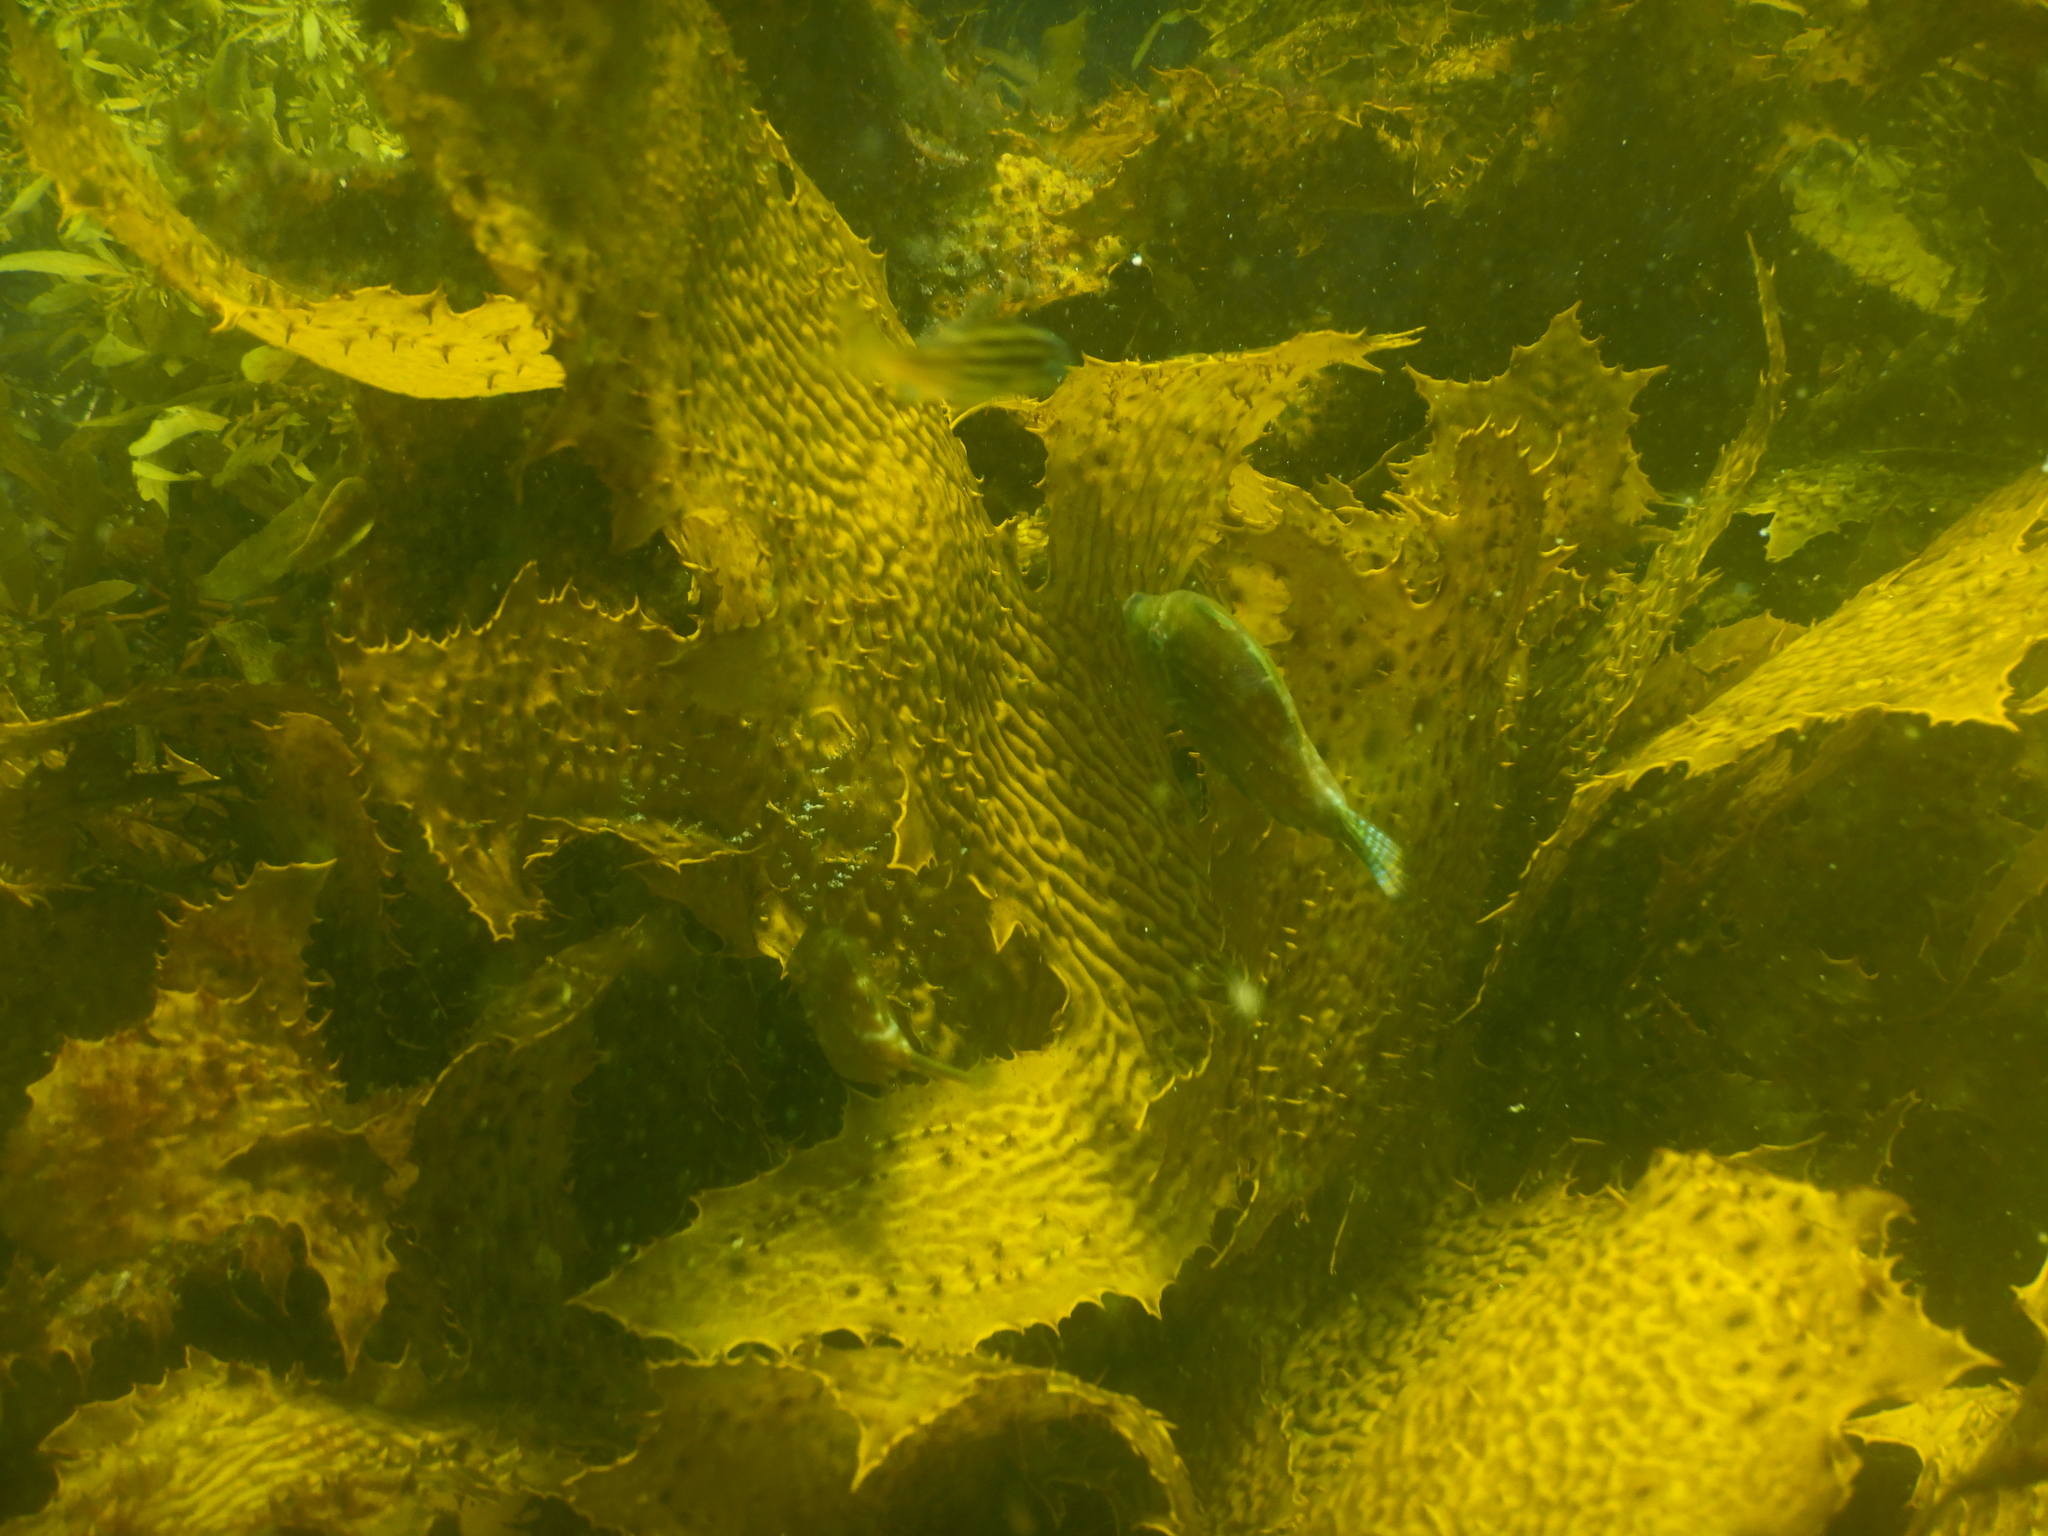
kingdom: Animalia
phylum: Chordata
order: Tetraodontiformes
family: Monacanthidae
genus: Brachaluteres
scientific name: Brachaluteres jacksonianus
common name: Pigmy leatherjacket
